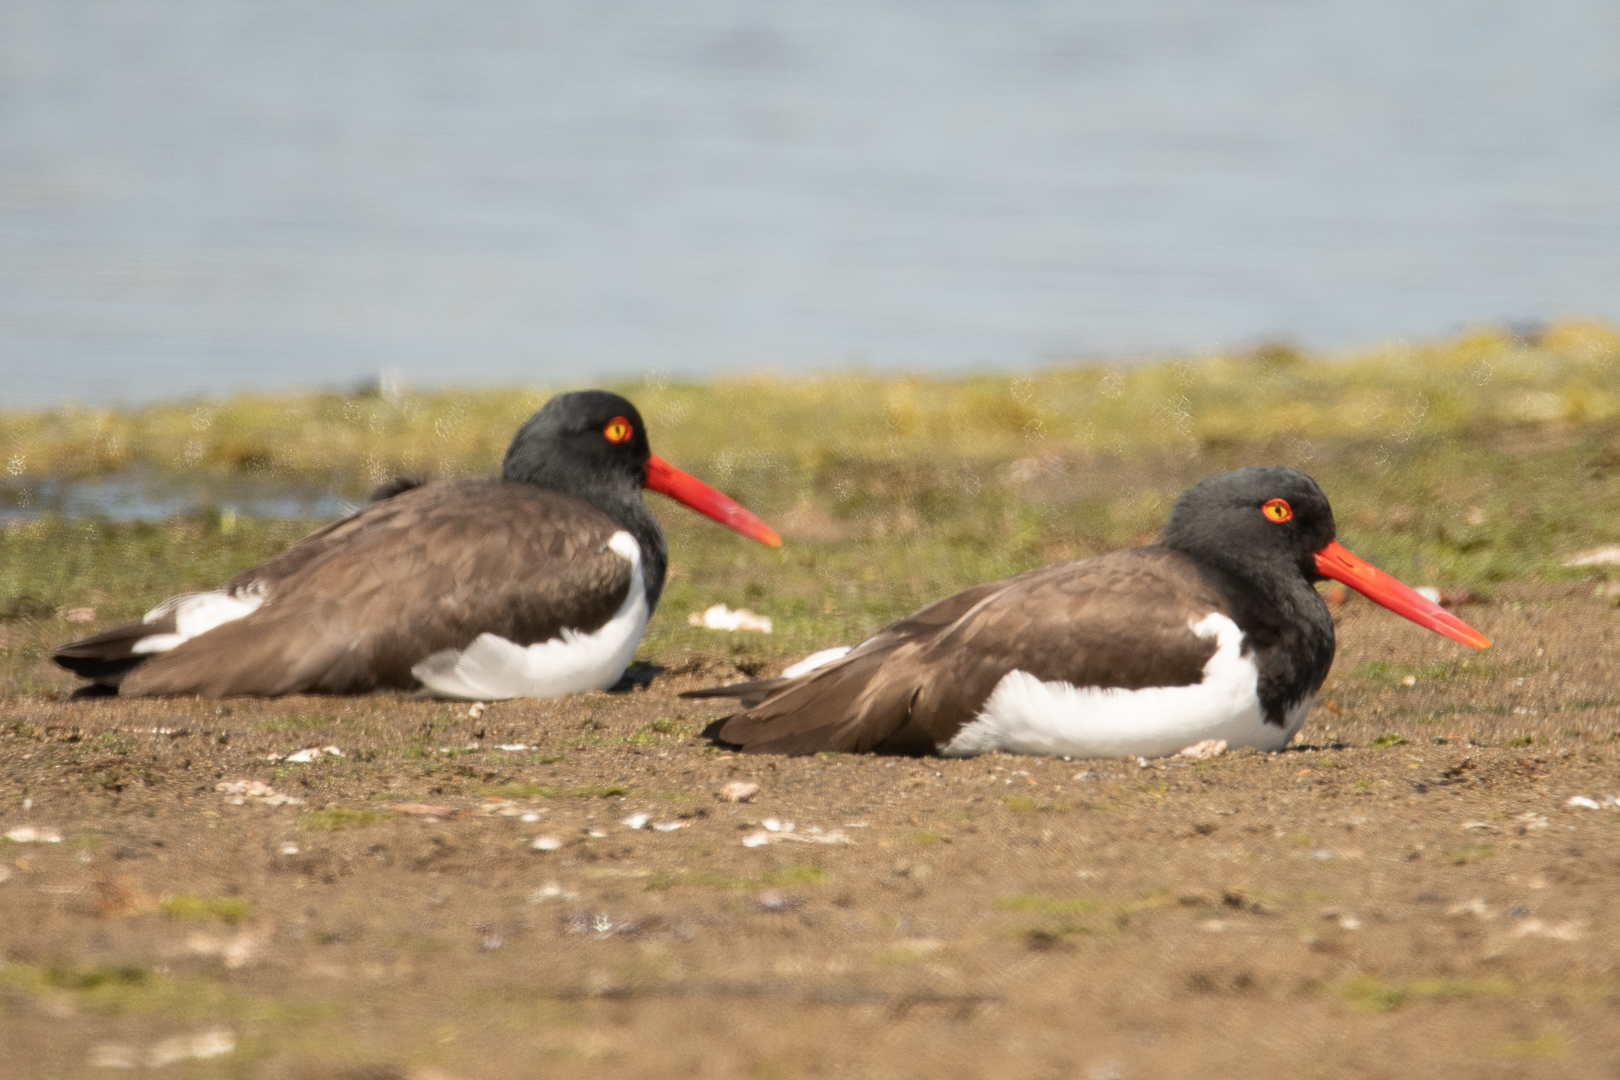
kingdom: Animalia
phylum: Chordata
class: Aves
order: Charadriiformes
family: Haematopodidae
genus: Haematopus
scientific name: Haematopus palliatus
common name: American oystercatcher
